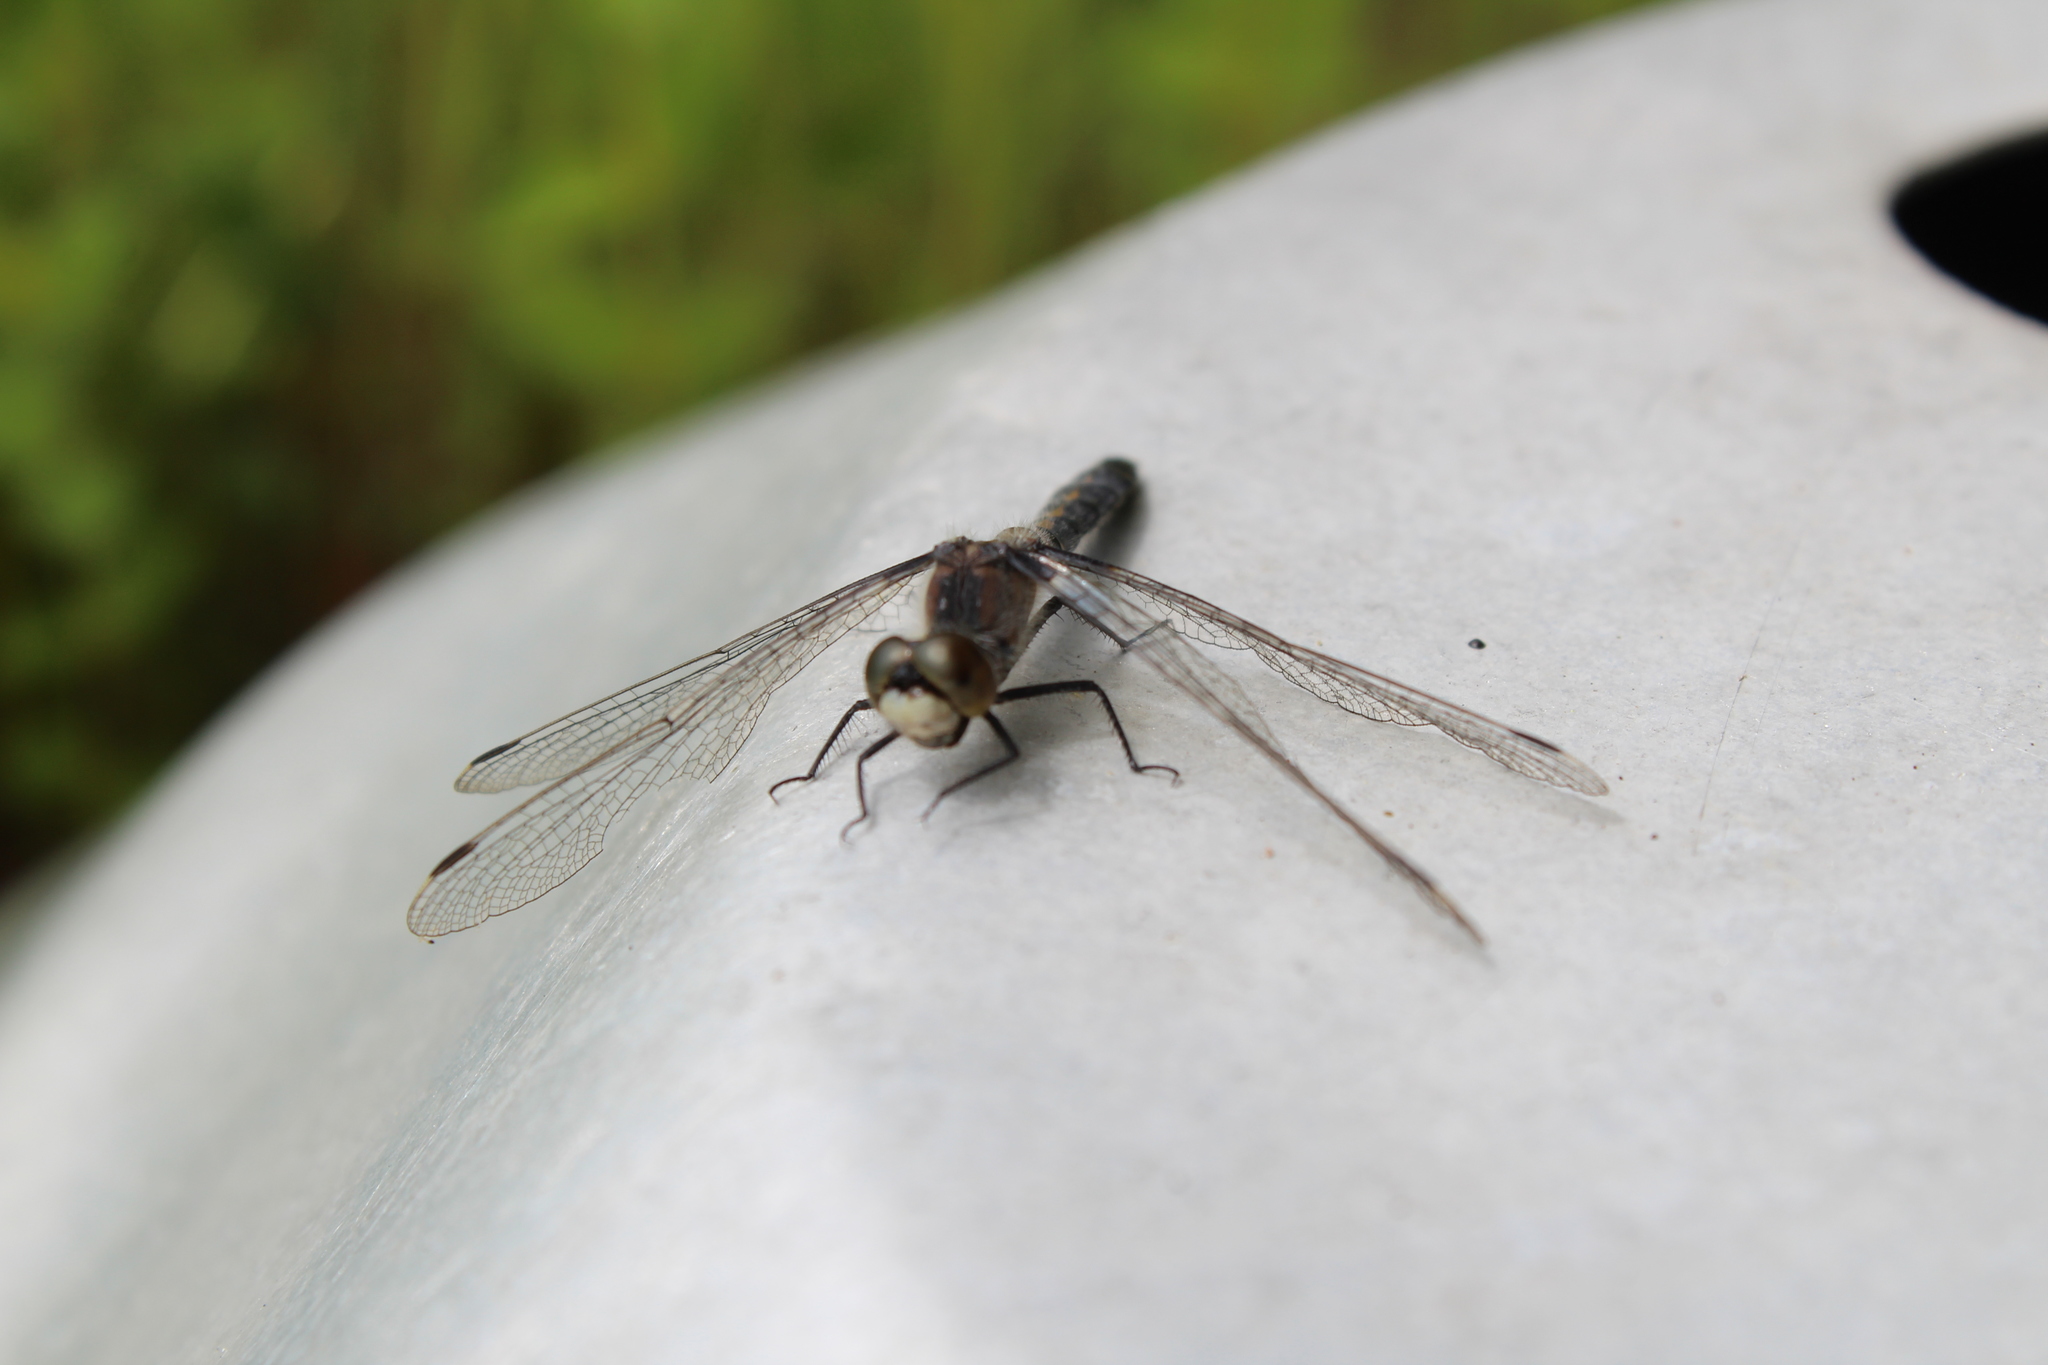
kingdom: Animalia
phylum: Arthropoda
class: Insecta
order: Odonata
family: Libellulidae
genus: Leucorrhinia
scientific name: Leucorrhinia frigida
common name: Frosted whiteface
